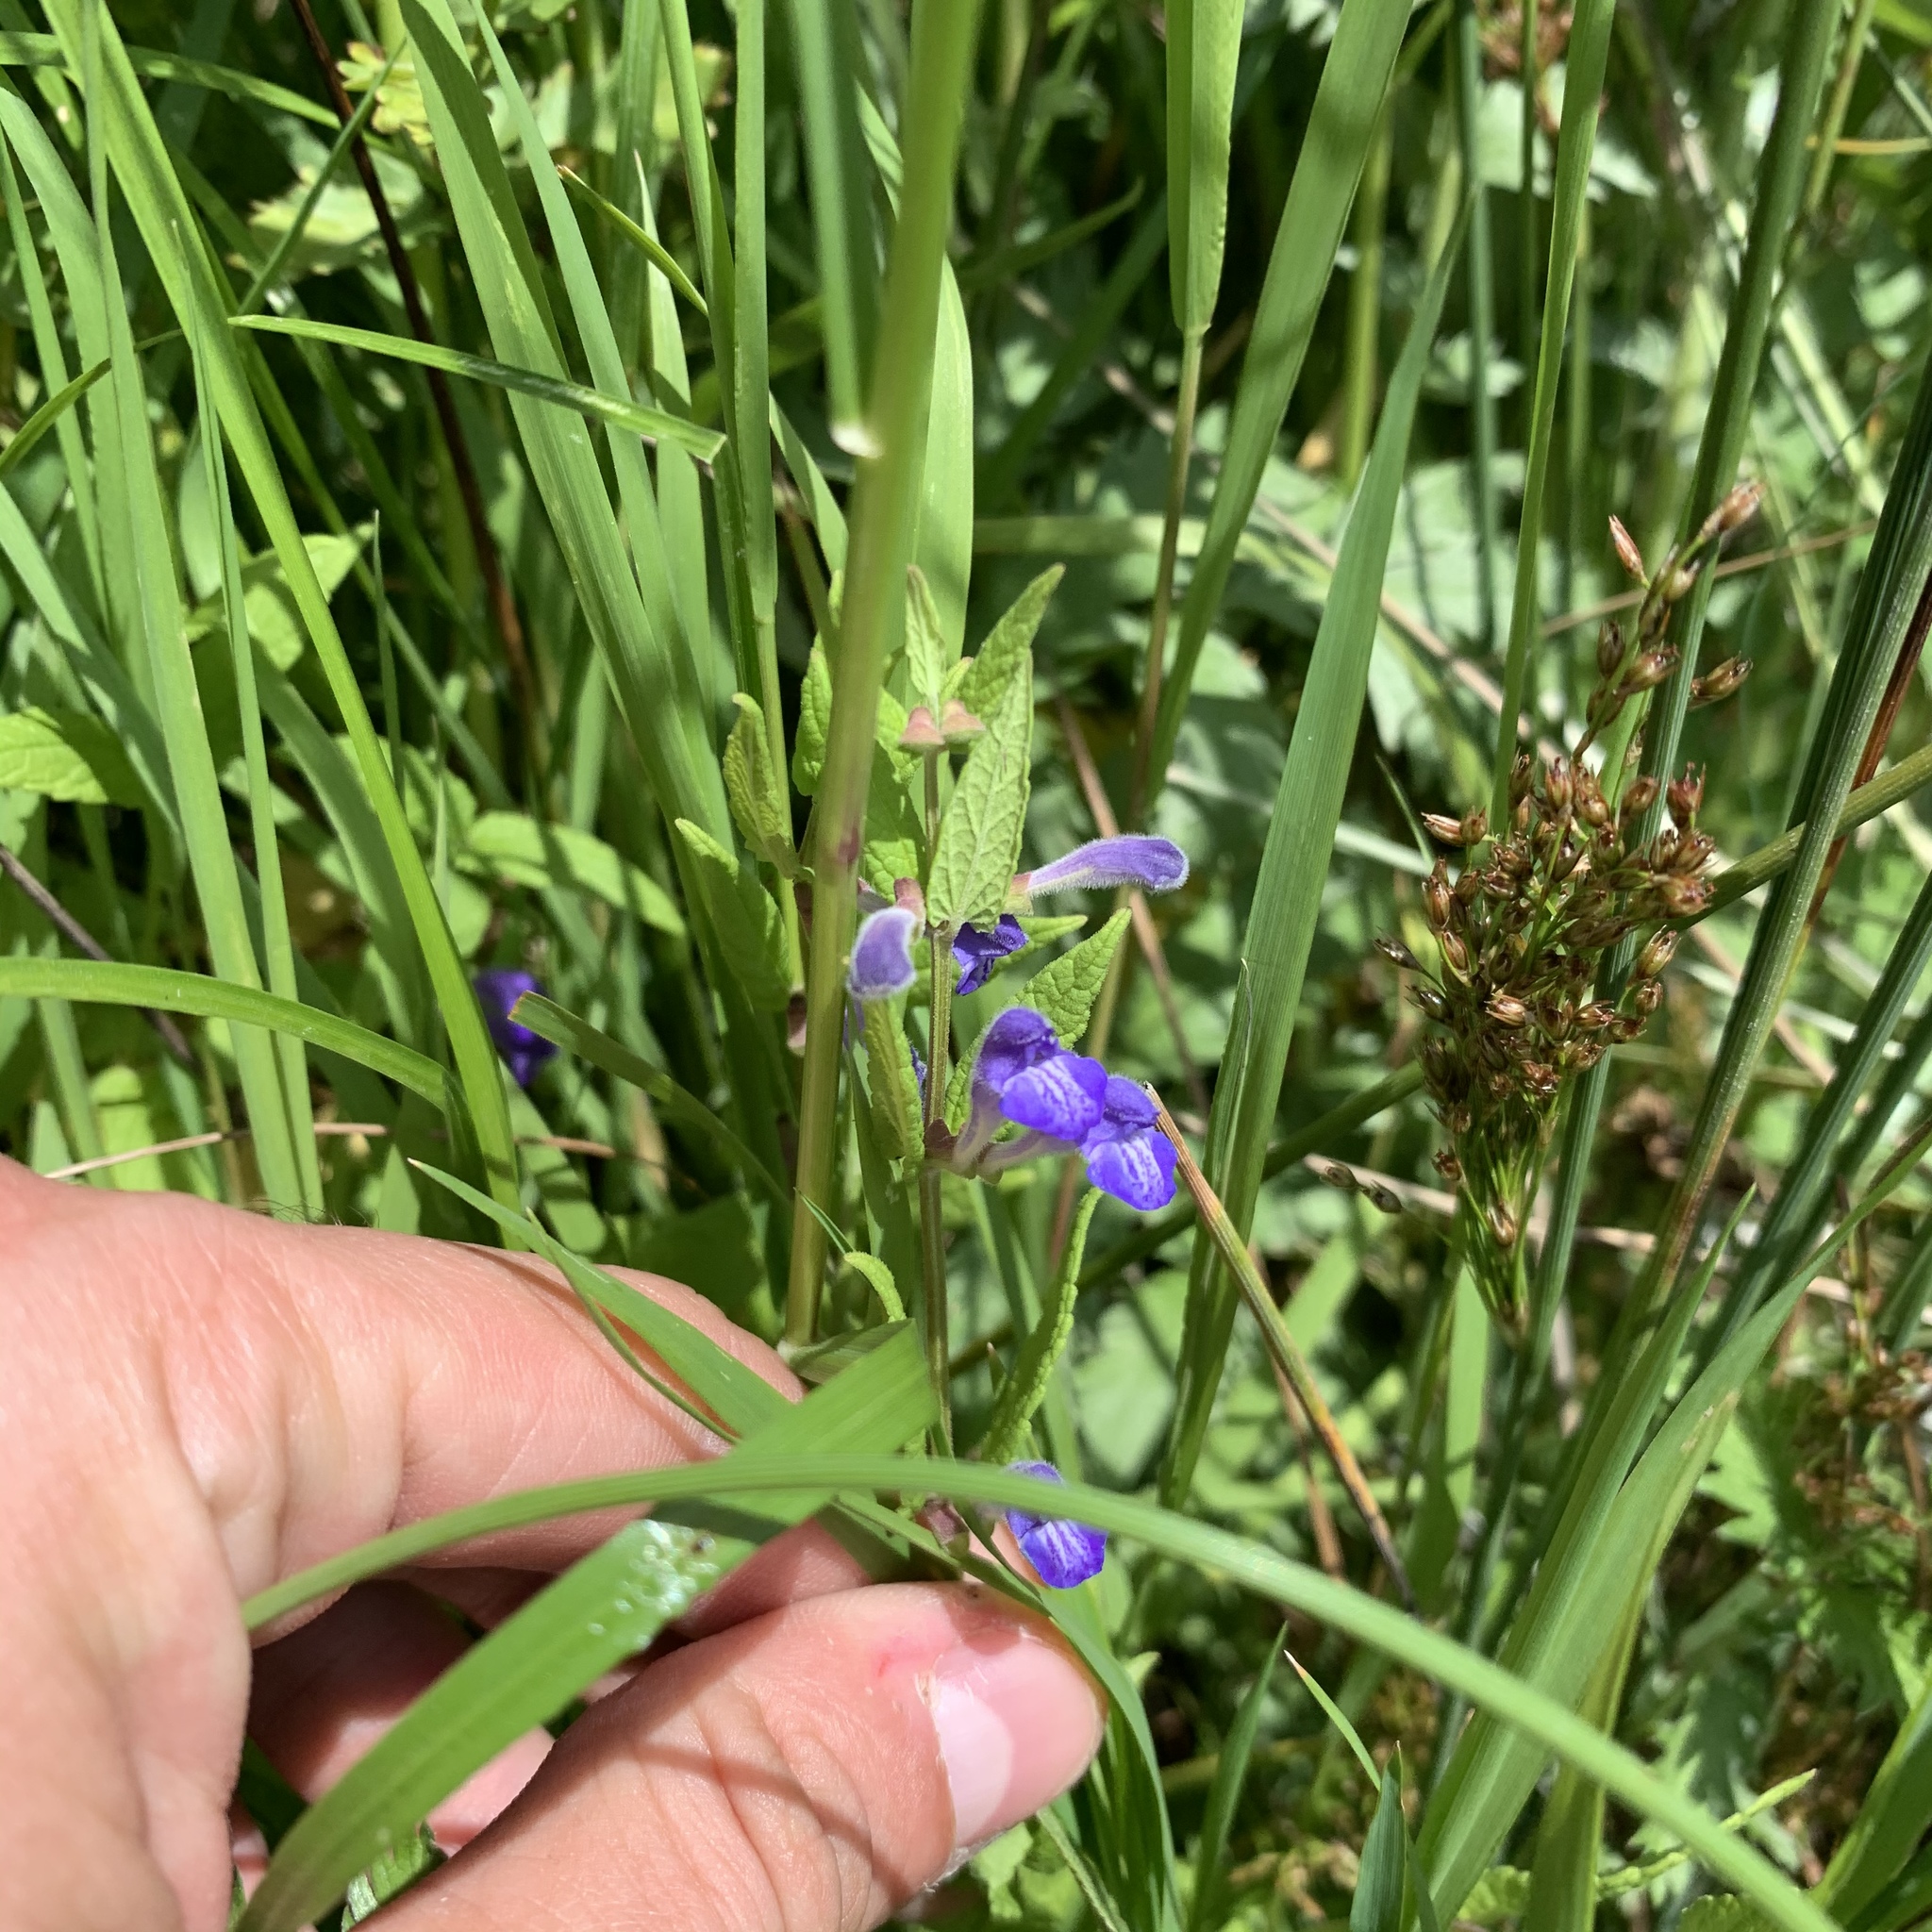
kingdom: Plantae
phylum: Tracheophyta
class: Magnoliopsida
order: Lamiales
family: Lamiaceae
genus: Scutellaria
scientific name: Scutellaria galericulata
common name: Skullcap
